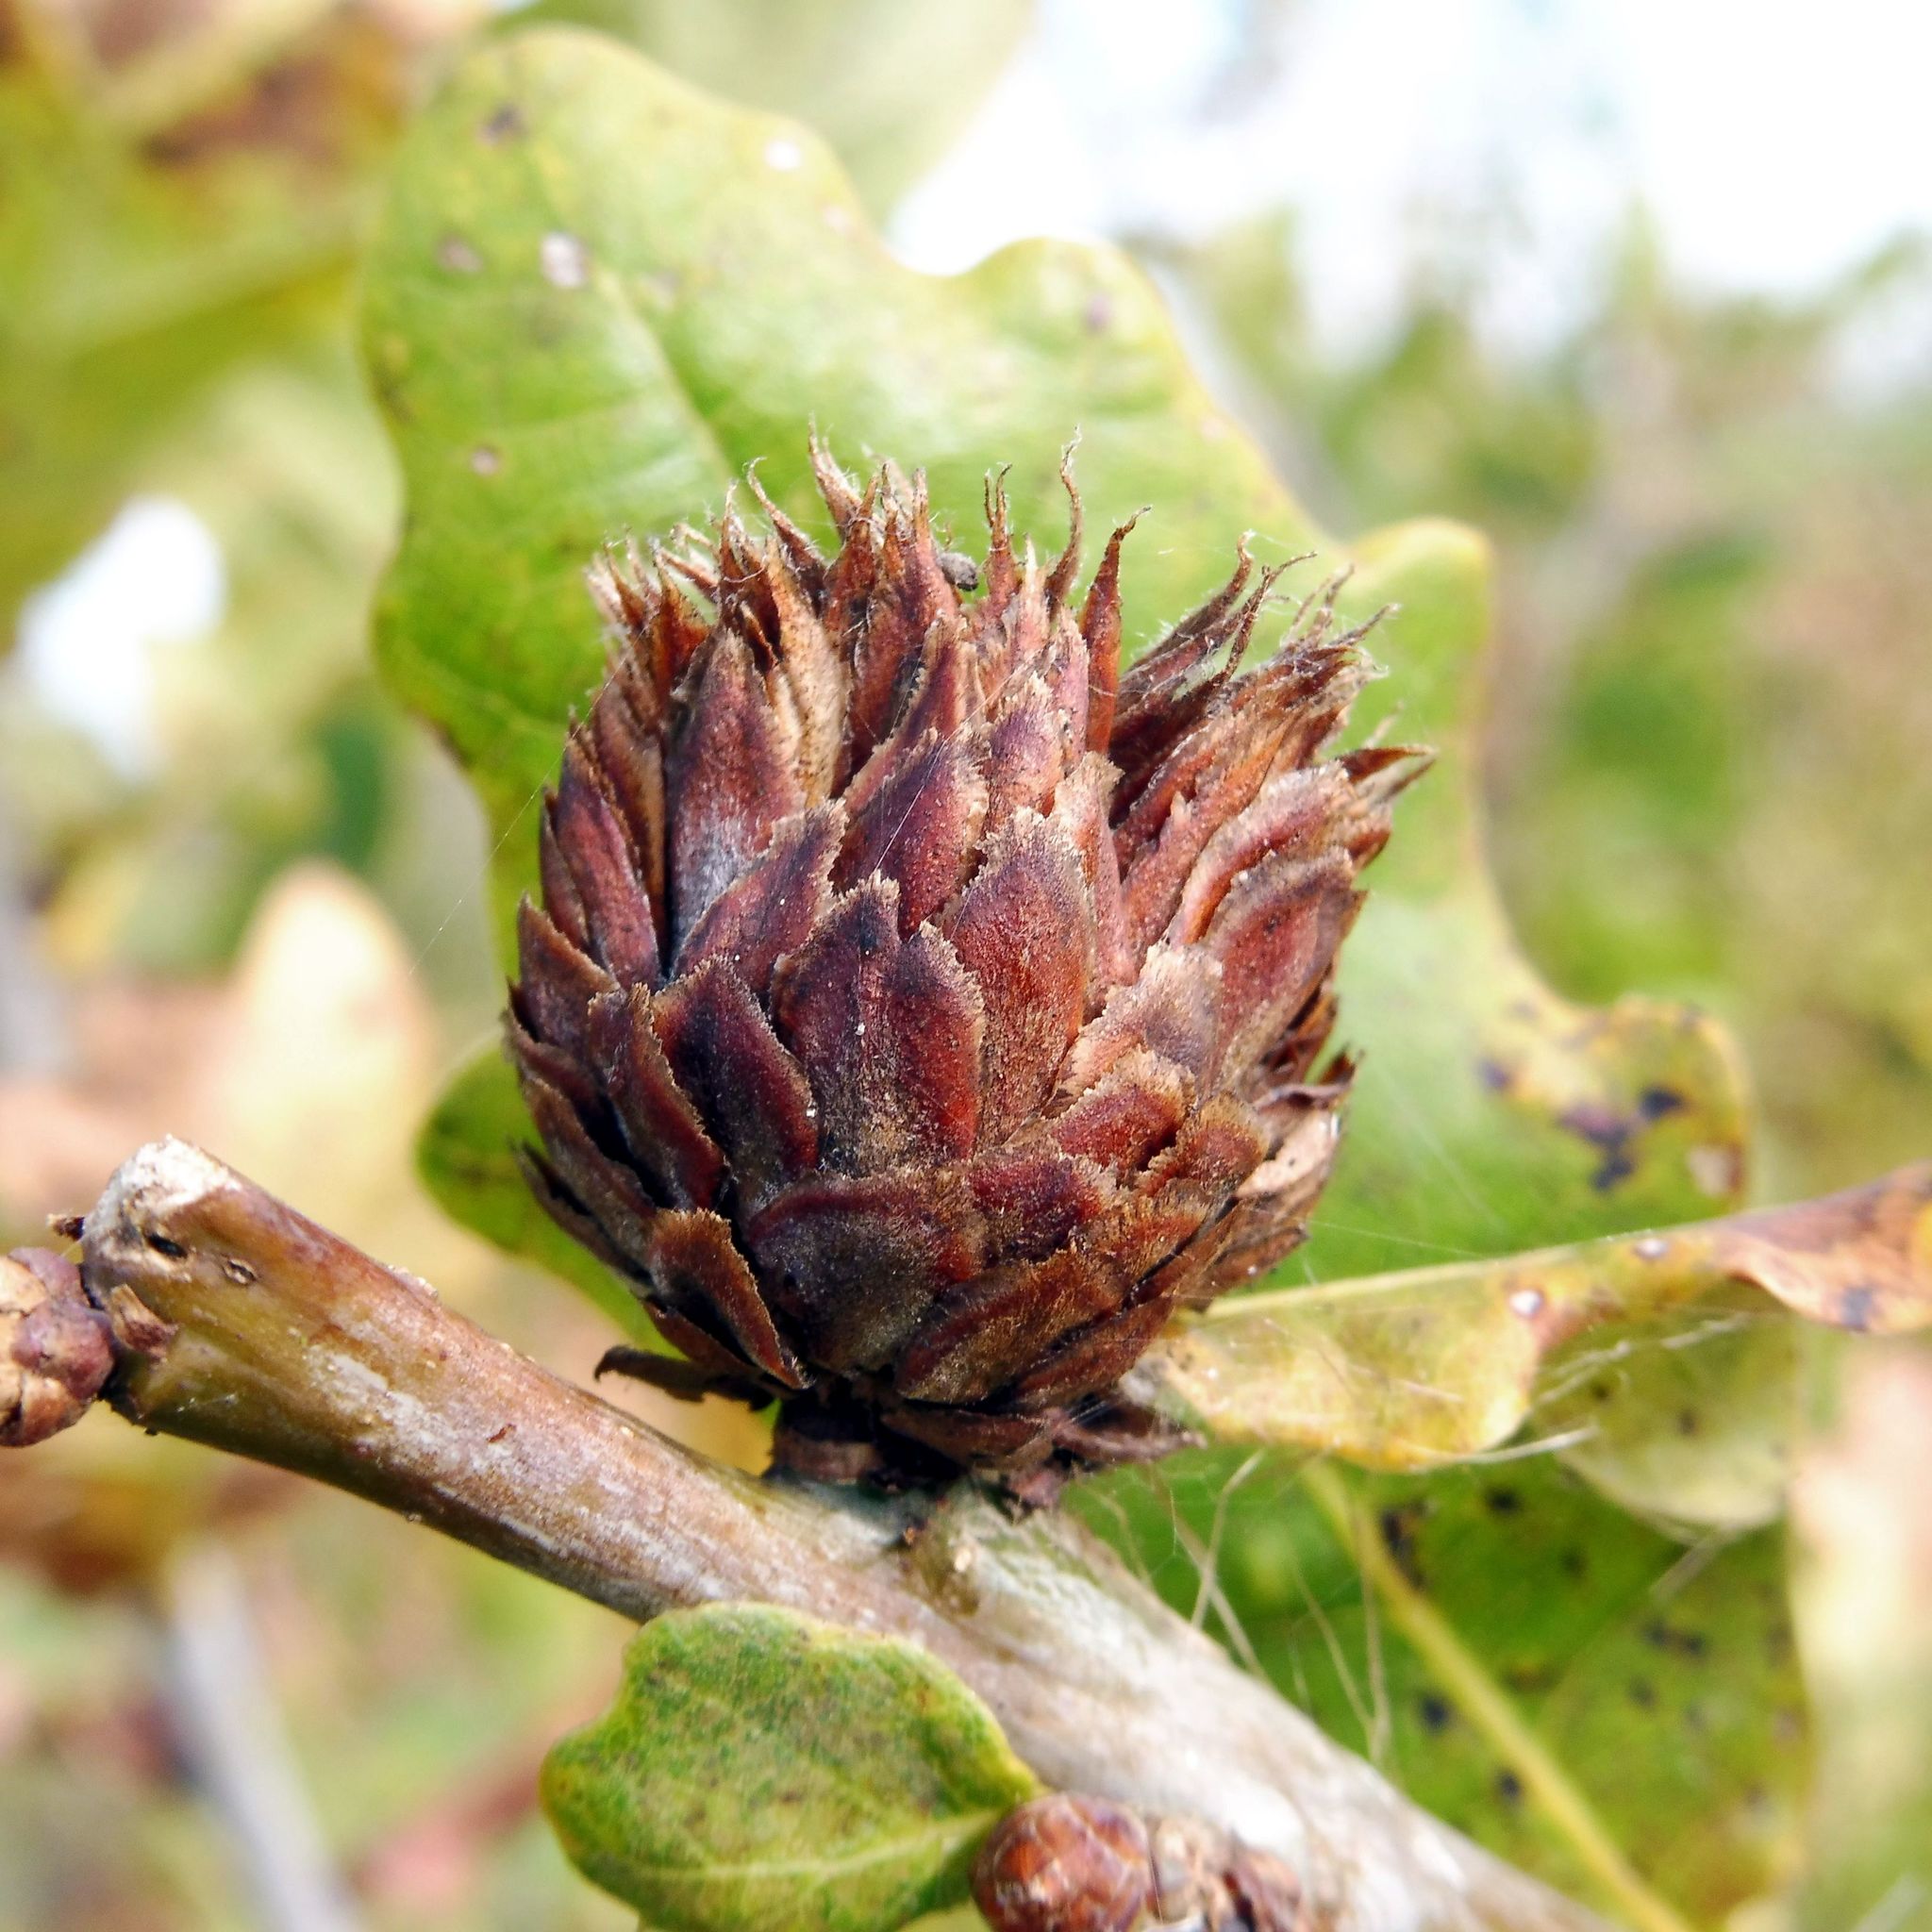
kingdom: Animalia
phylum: Arthropoda
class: Insecta
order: Hymenoptera
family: Cynipidae
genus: Andricus
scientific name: Andricus foecundatrix
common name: Artichoke gall
